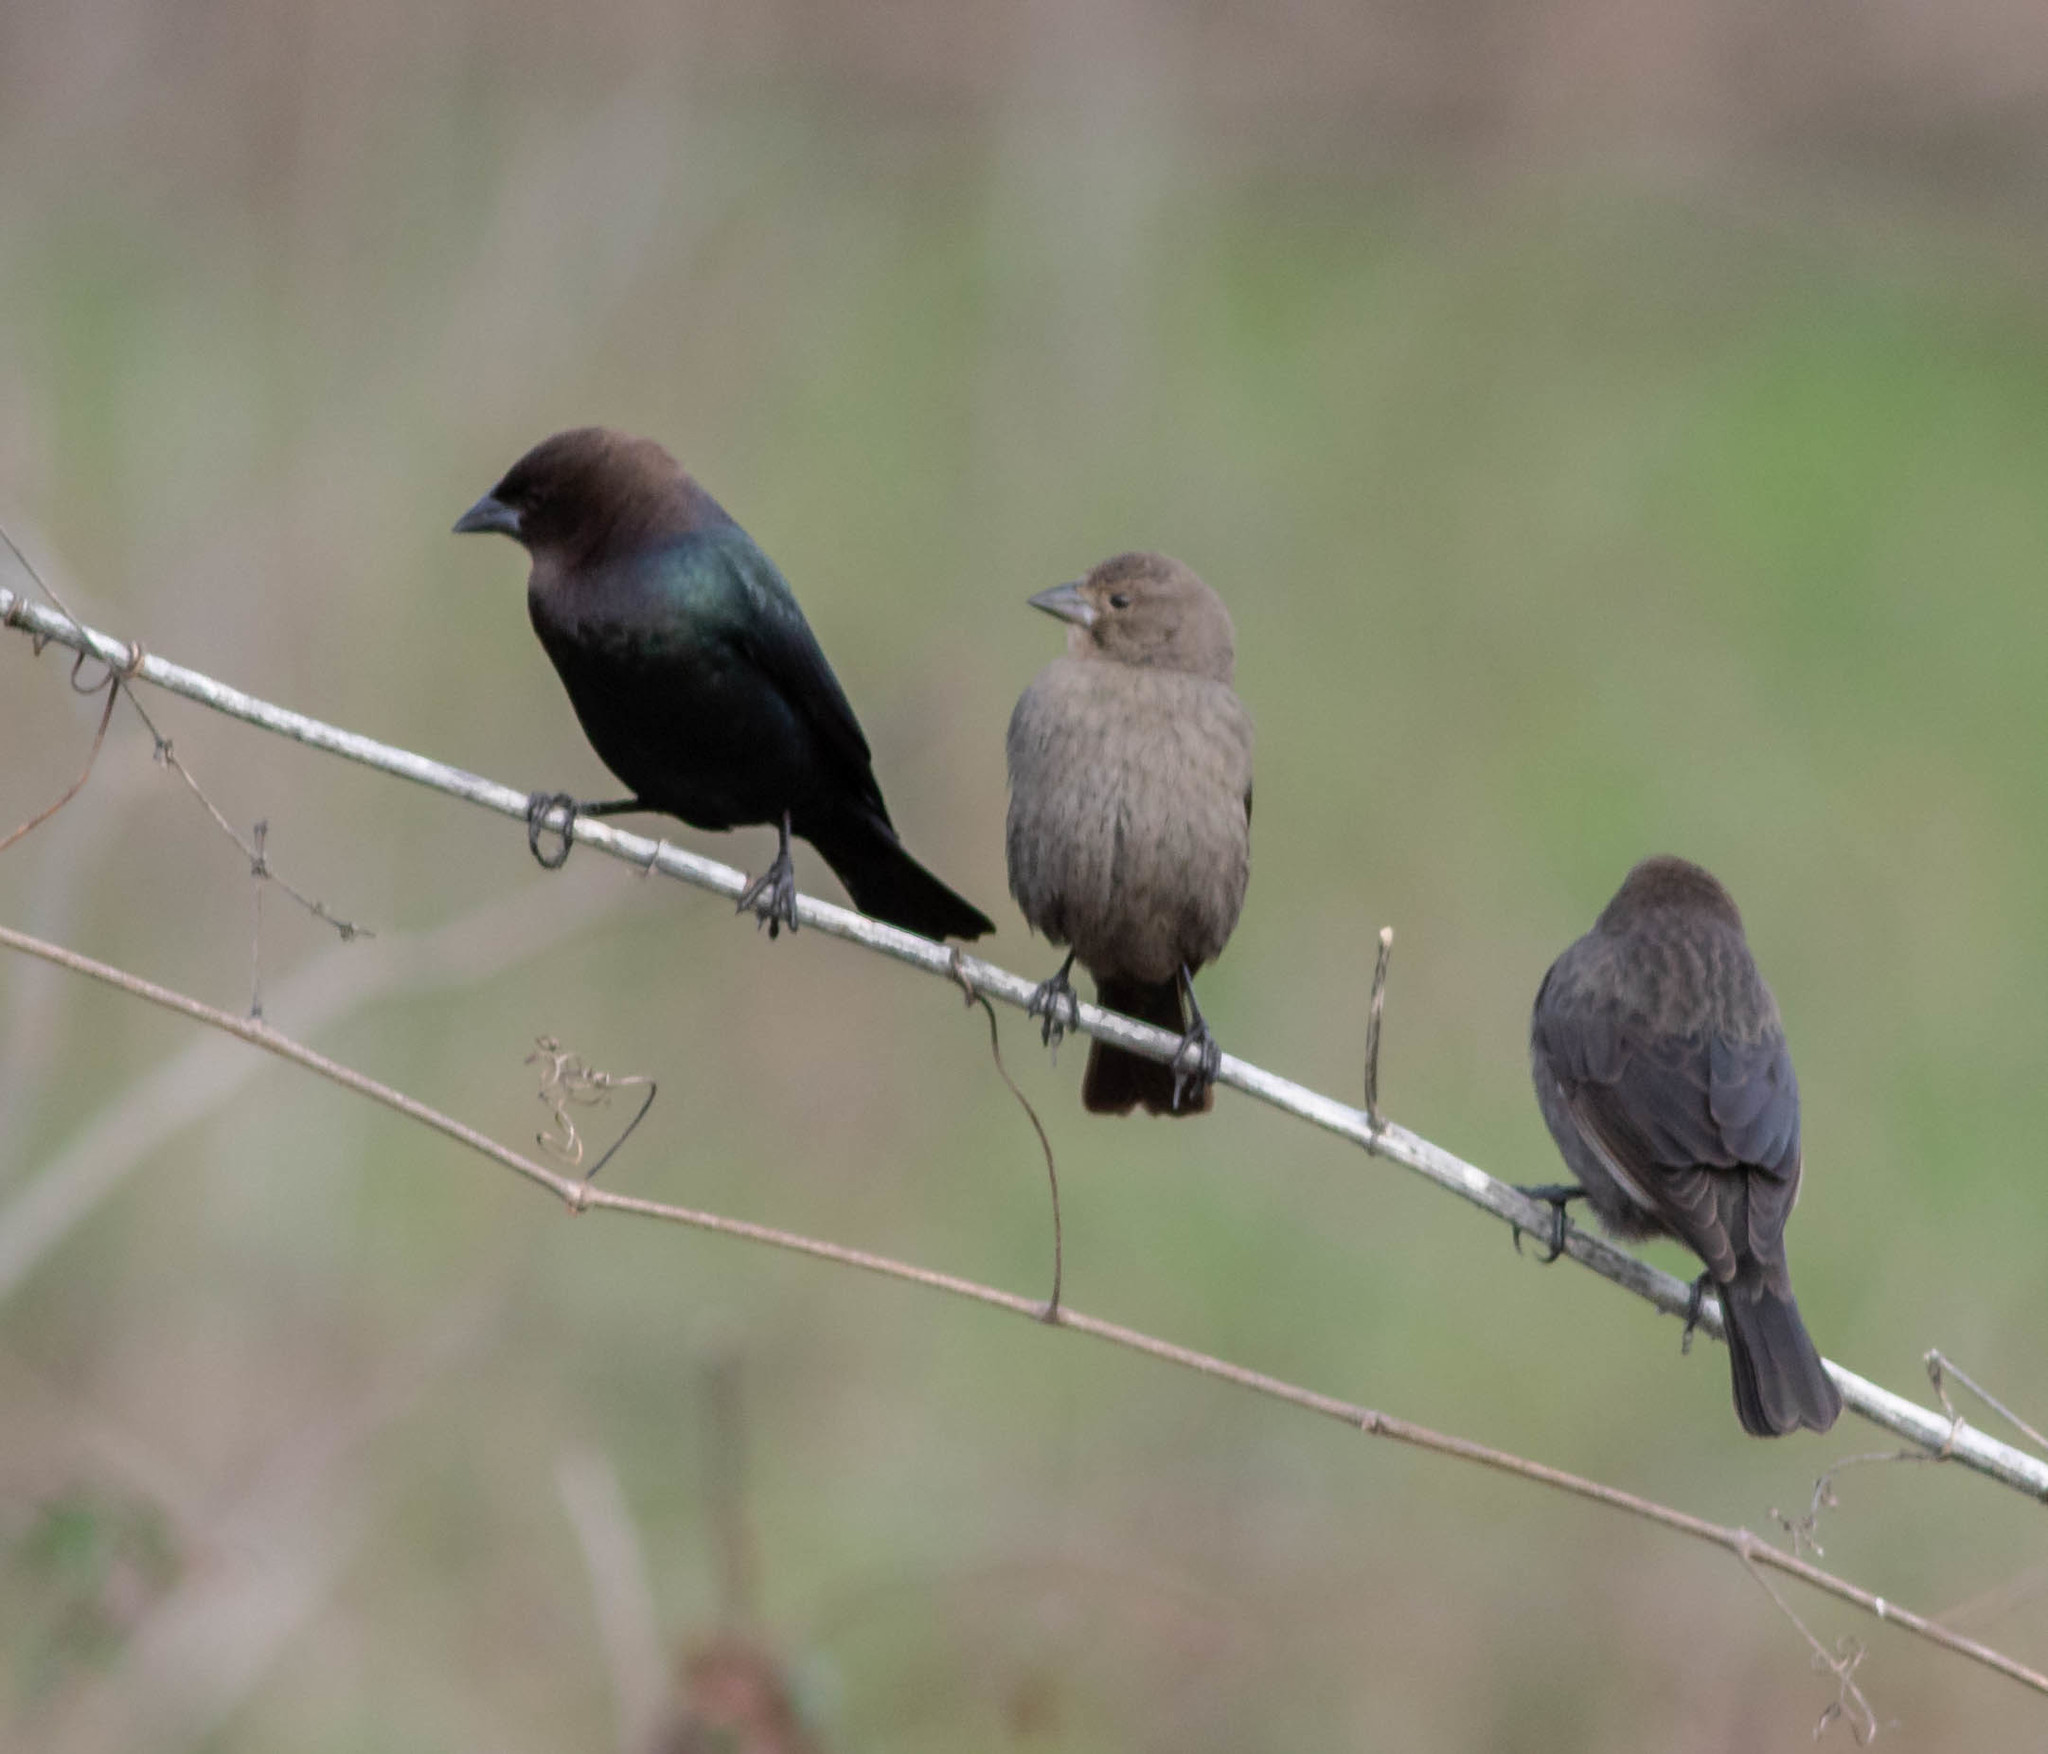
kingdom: Animalia
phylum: Chordata
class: Aves
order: Passeriformes
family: Icteridae
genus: Molothrus
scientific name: Molothrus ater
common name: Brown-headed cowbird
